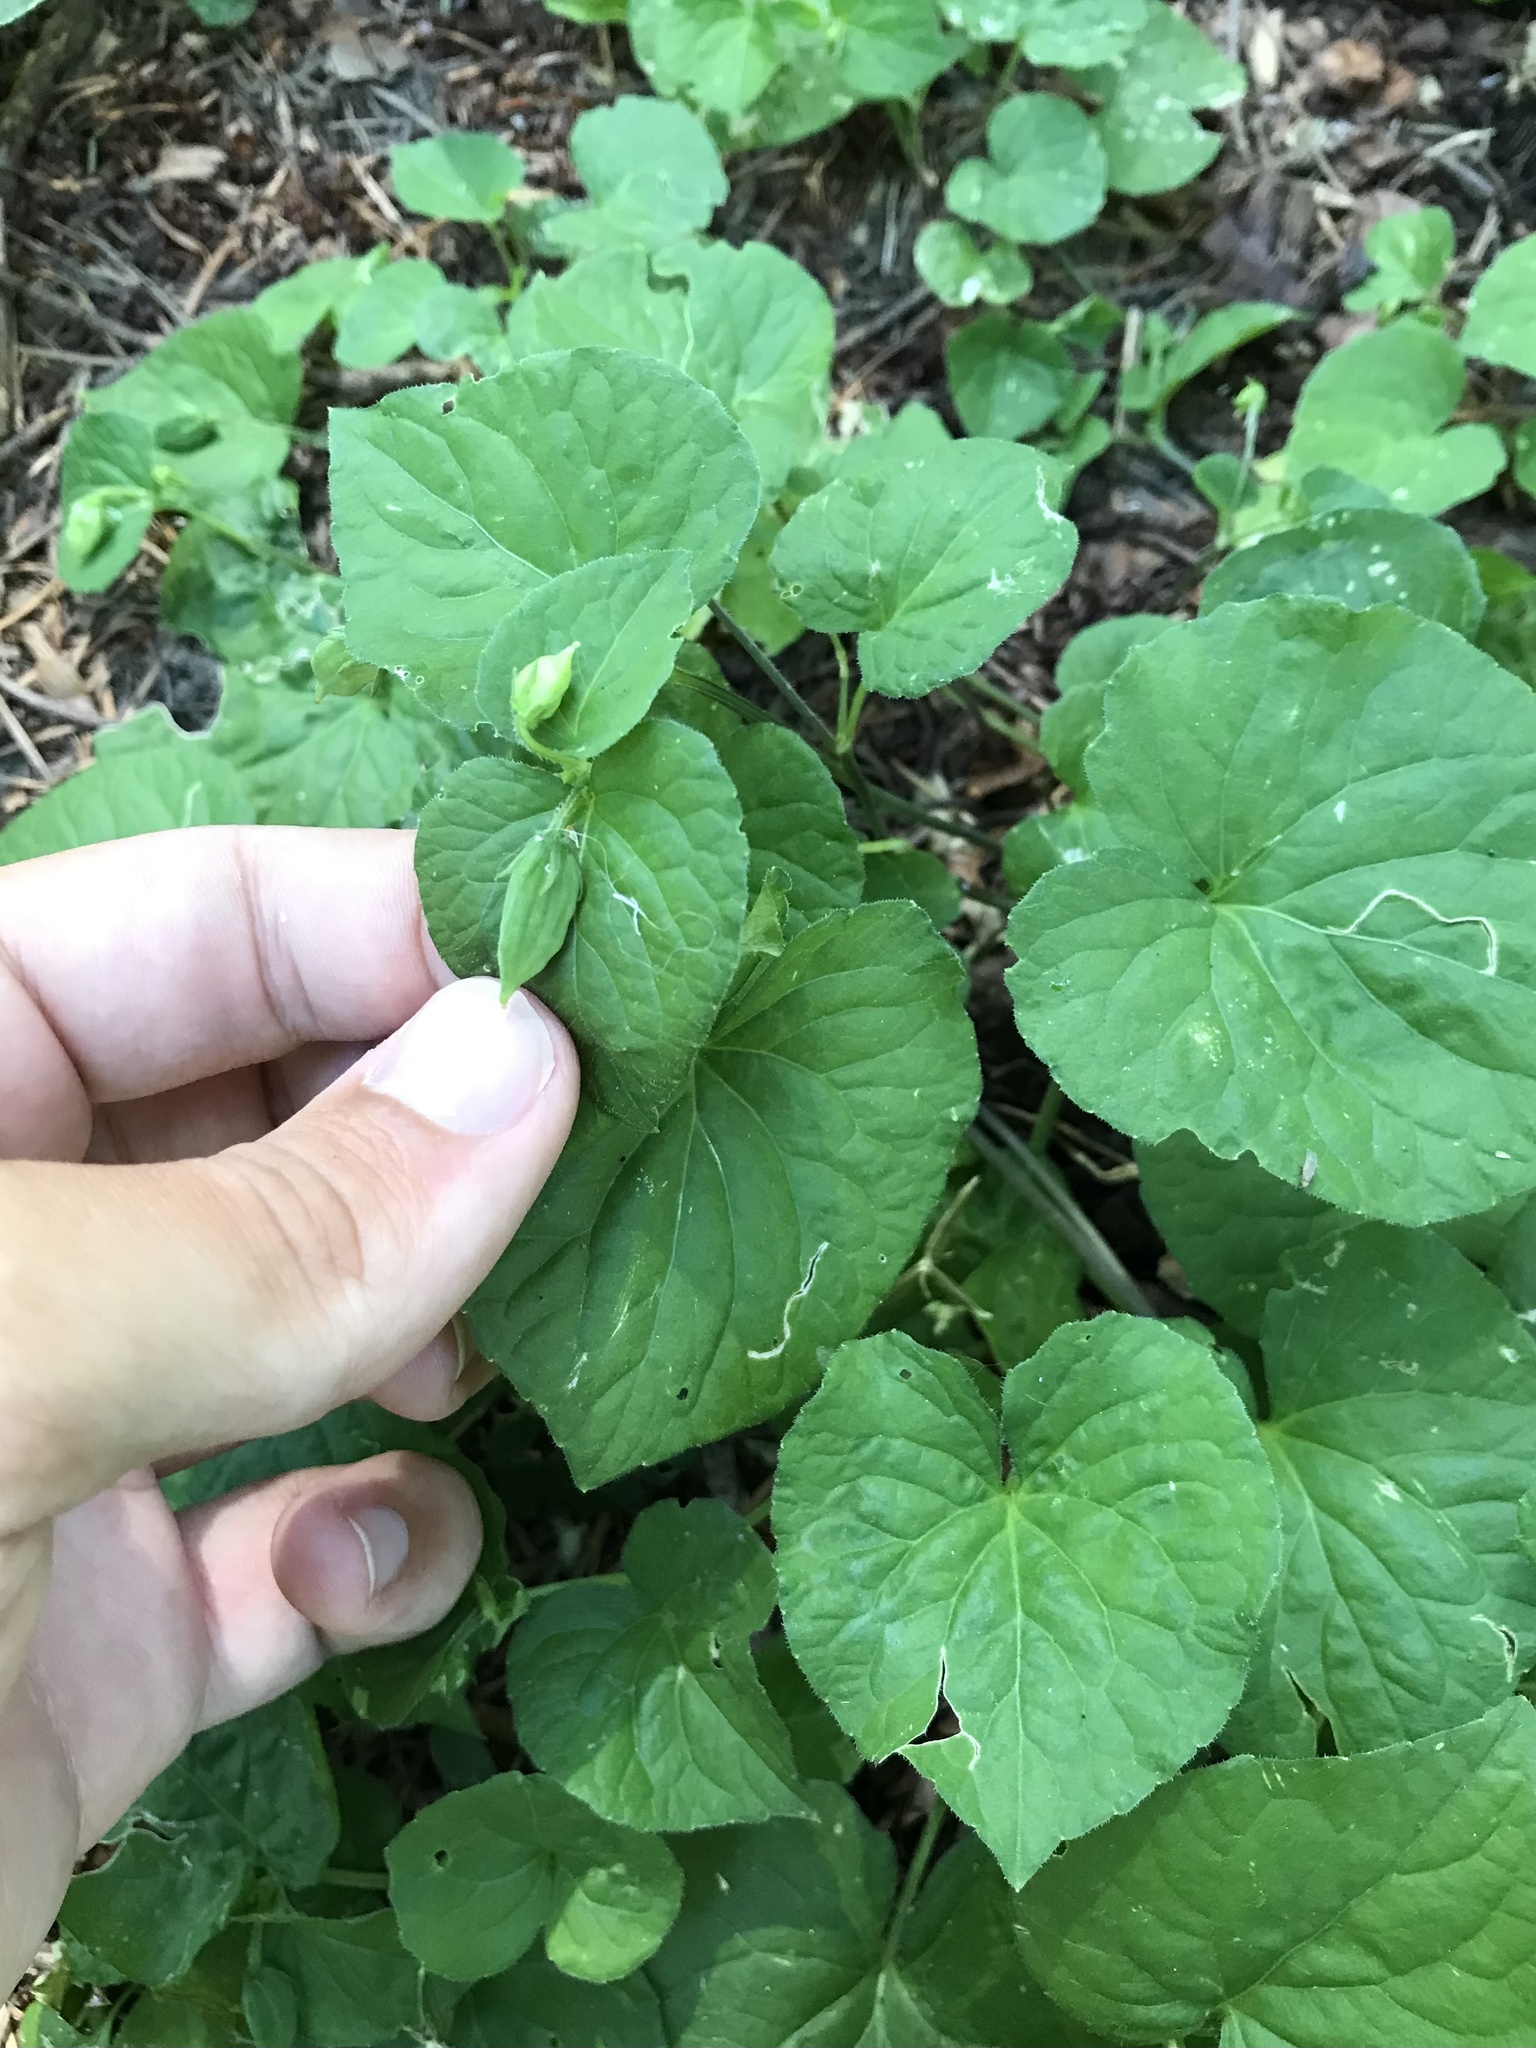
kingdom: Plantae
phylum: Tracheophyta
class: Magnoliopsida
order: Malpighiales
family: Violaceae
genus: Viola
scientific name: Viola glabella
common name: Stream violet
